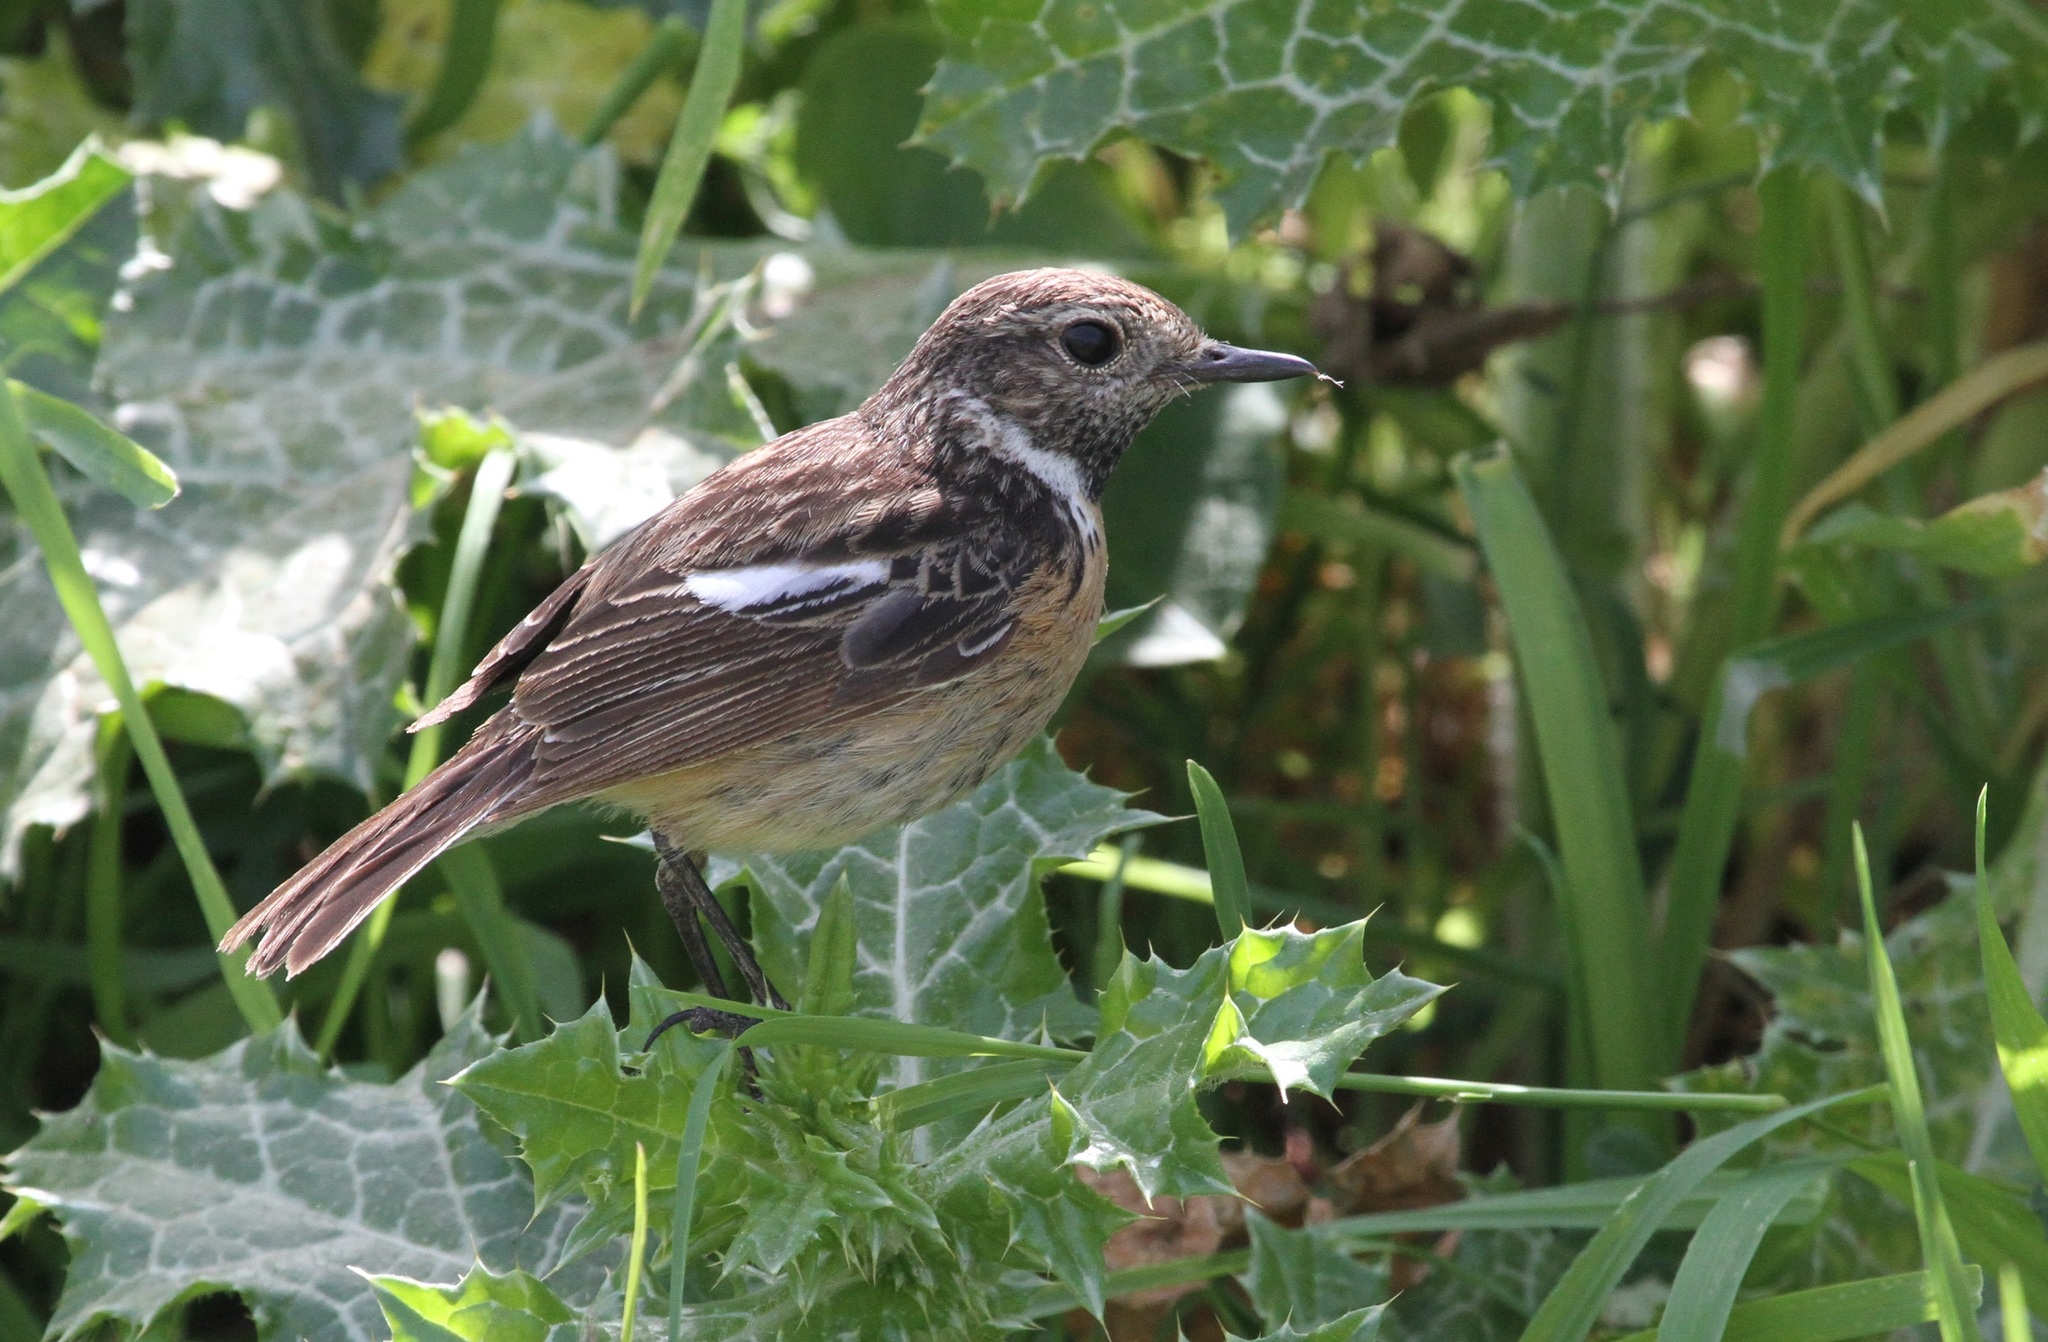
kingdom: Animalia
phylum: Chordata
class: Aves
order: Passeriformes
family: Muscicapidae
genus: Saxicola
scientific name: Saxicola rubicola
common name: European stonechat
